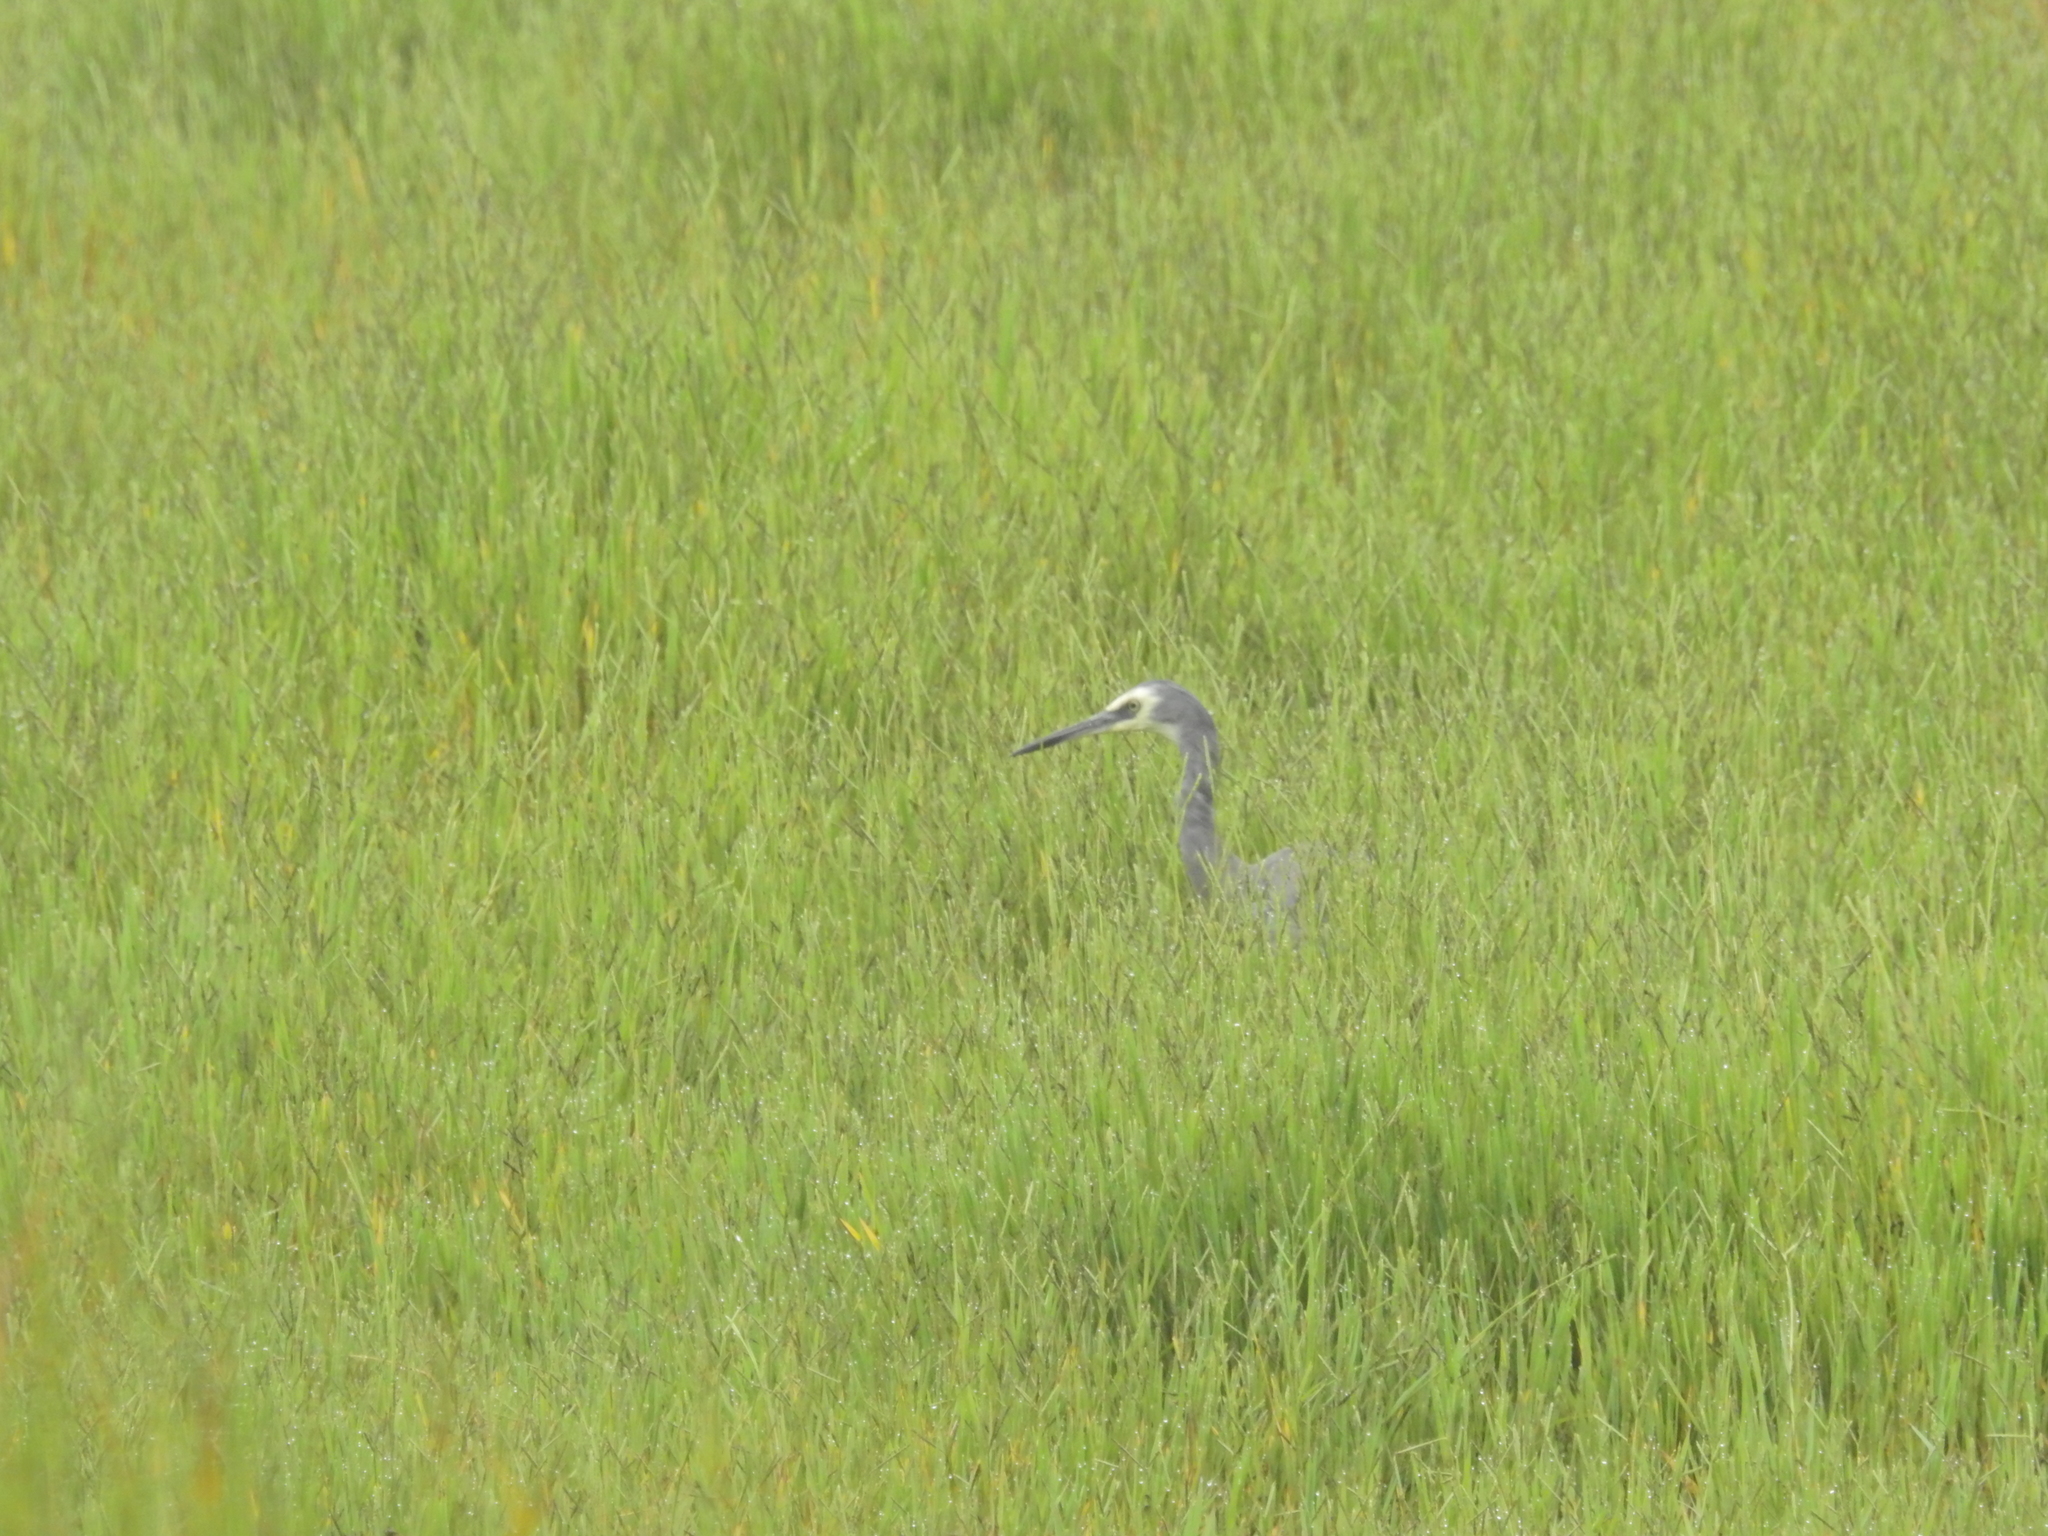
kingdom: Animalia
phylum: Chordata
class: Aves
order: Pelecaniformes
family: Ardeidae
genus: Egretta
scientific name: Egretta novaehollandiae
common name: White-faced heron
